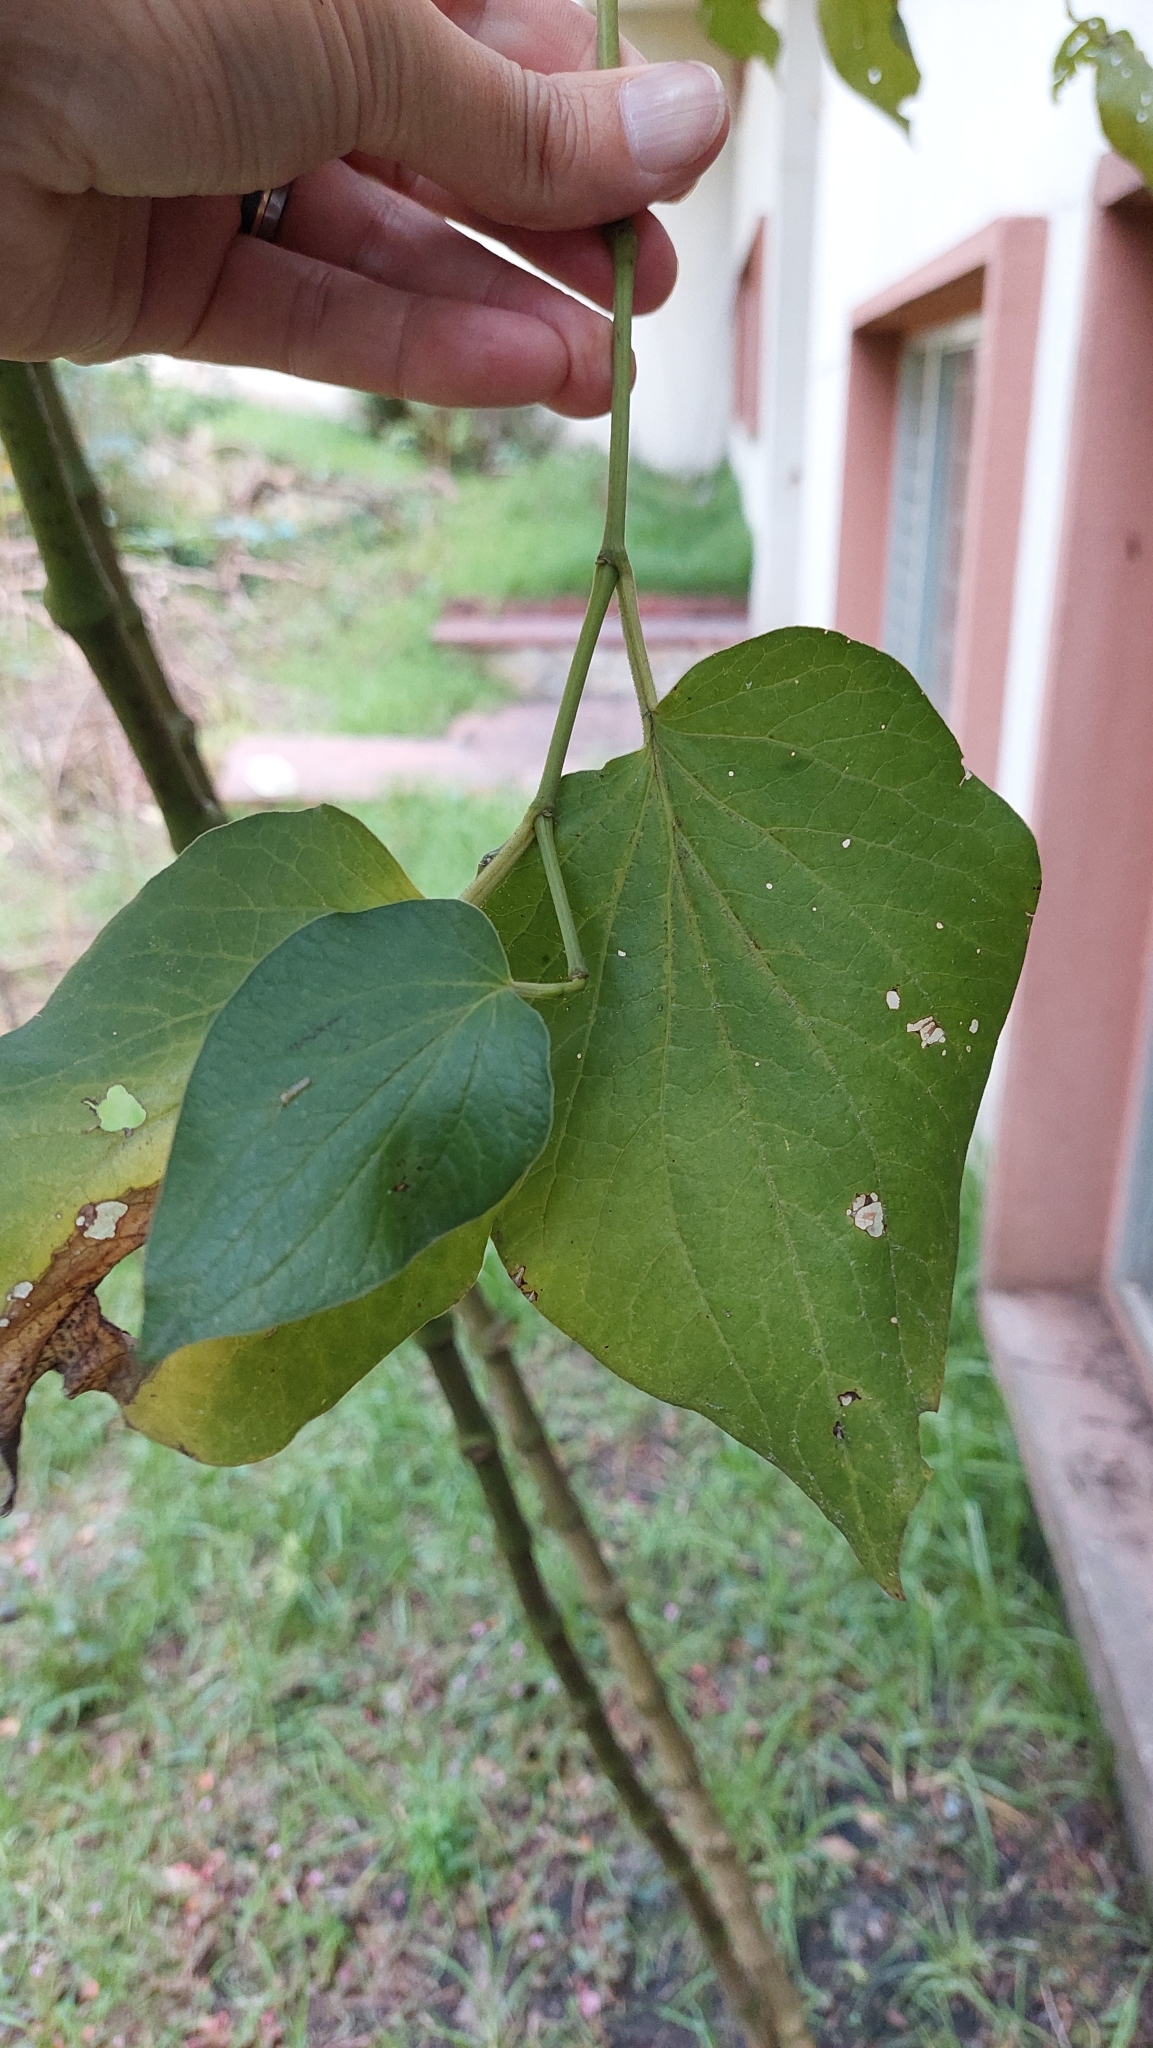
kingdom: Plantae
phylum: Tracheophyta
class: Magnoliopsida
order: Piperales
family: Piperaceae
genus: Piper
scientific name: Piper barbatum
